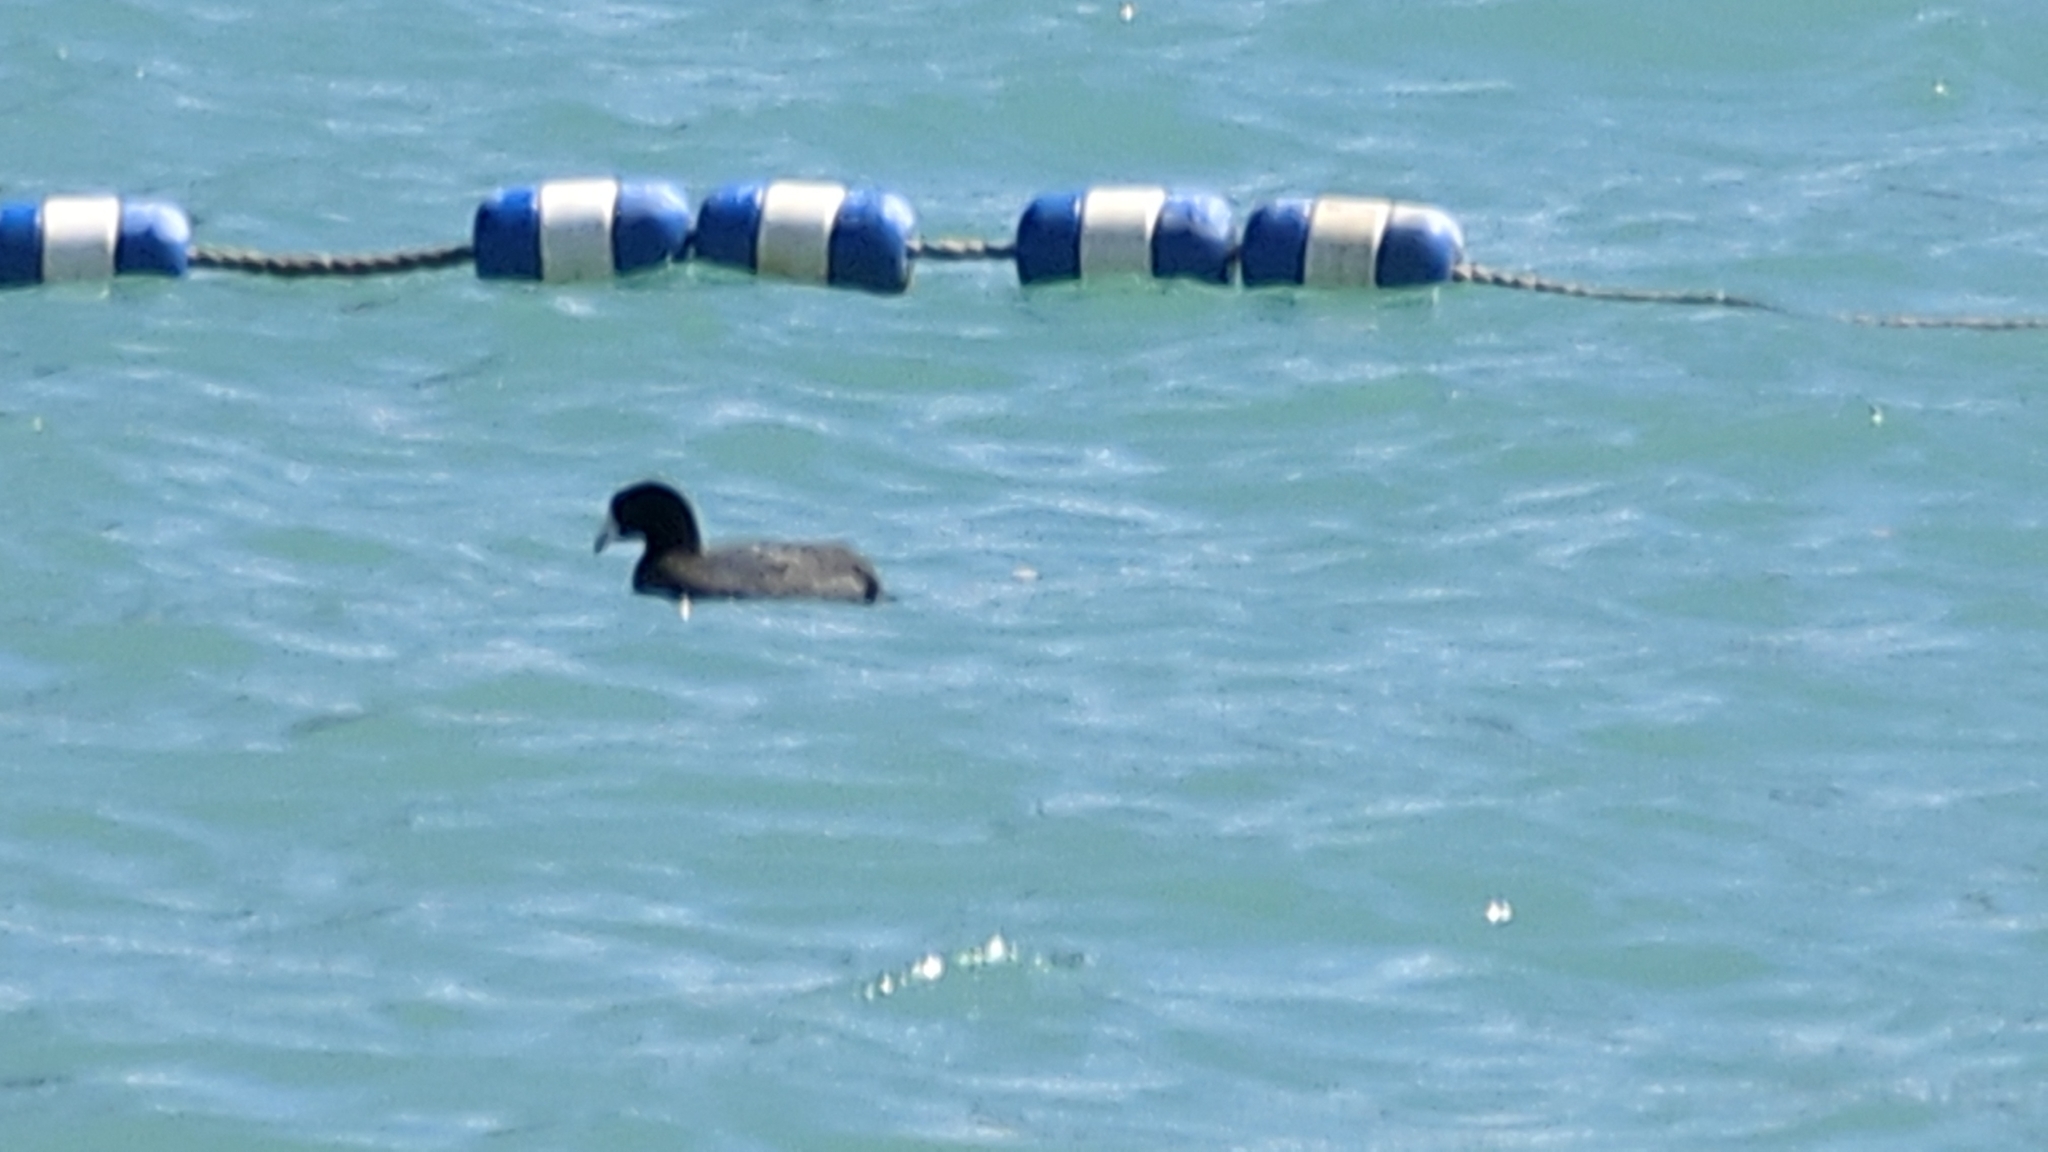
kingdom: Animalia
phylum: Chordata
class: Aves
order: Gruiformes
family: Rallidae
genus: Fulica
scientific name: Fulica americana
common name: American coot
